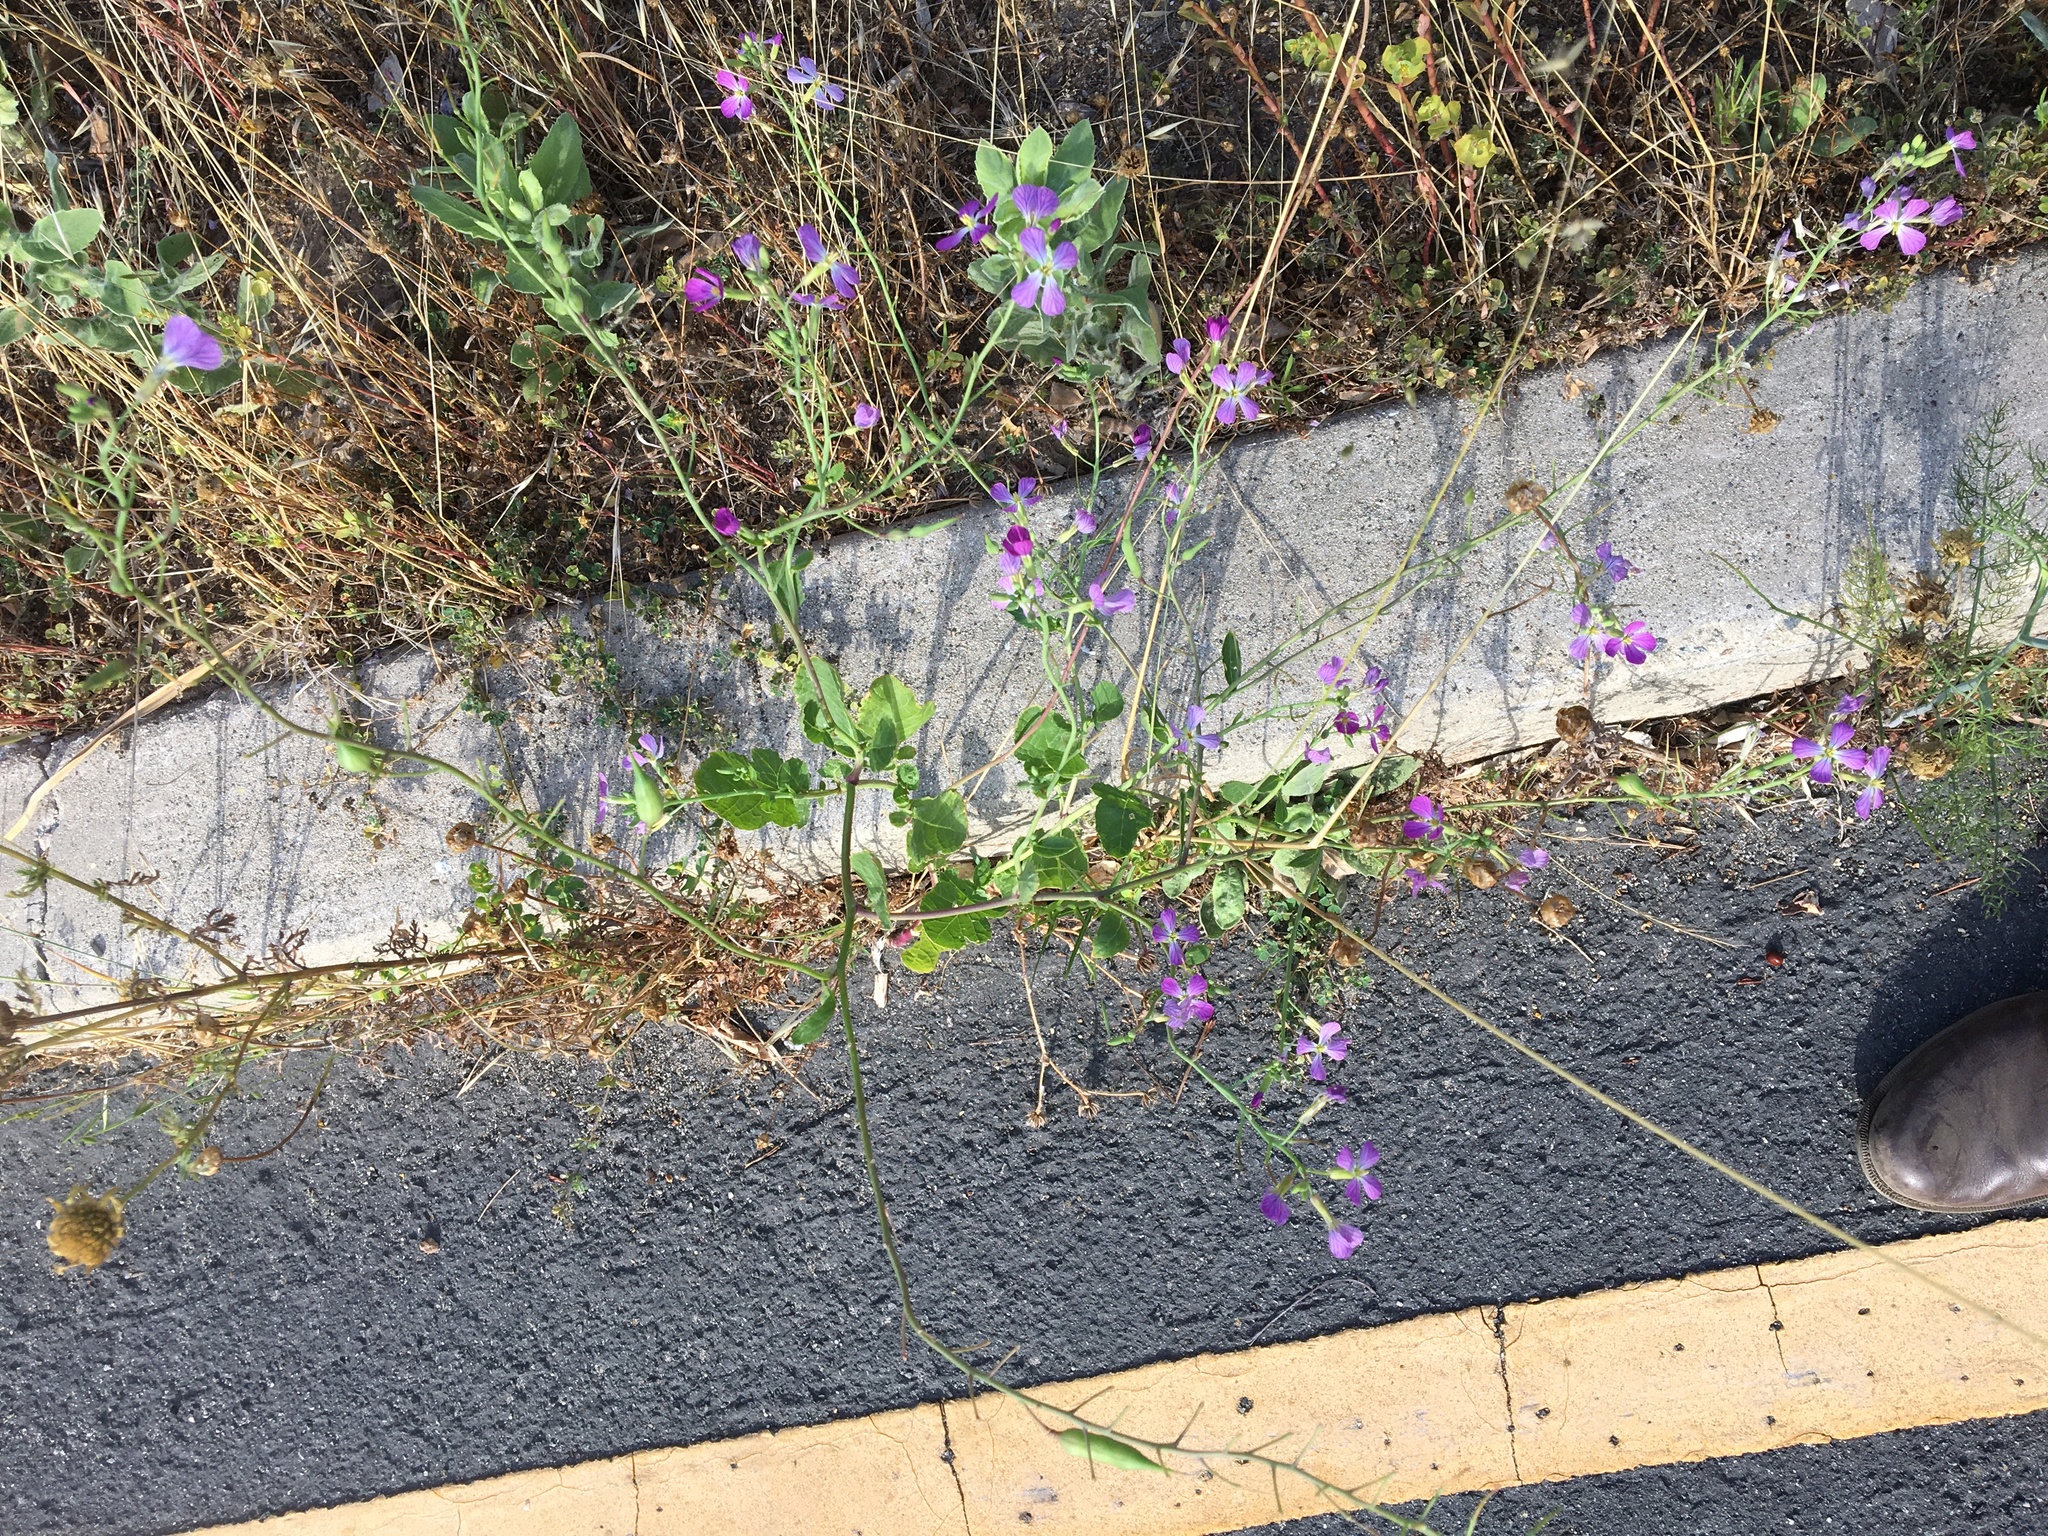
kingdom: Plantae
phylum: Tracheophyta
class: Magnoliopsida
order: Brassicales
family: Brassicaceae
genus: Raphanus
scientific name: Raphanus sativus
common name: Cultivated radish
